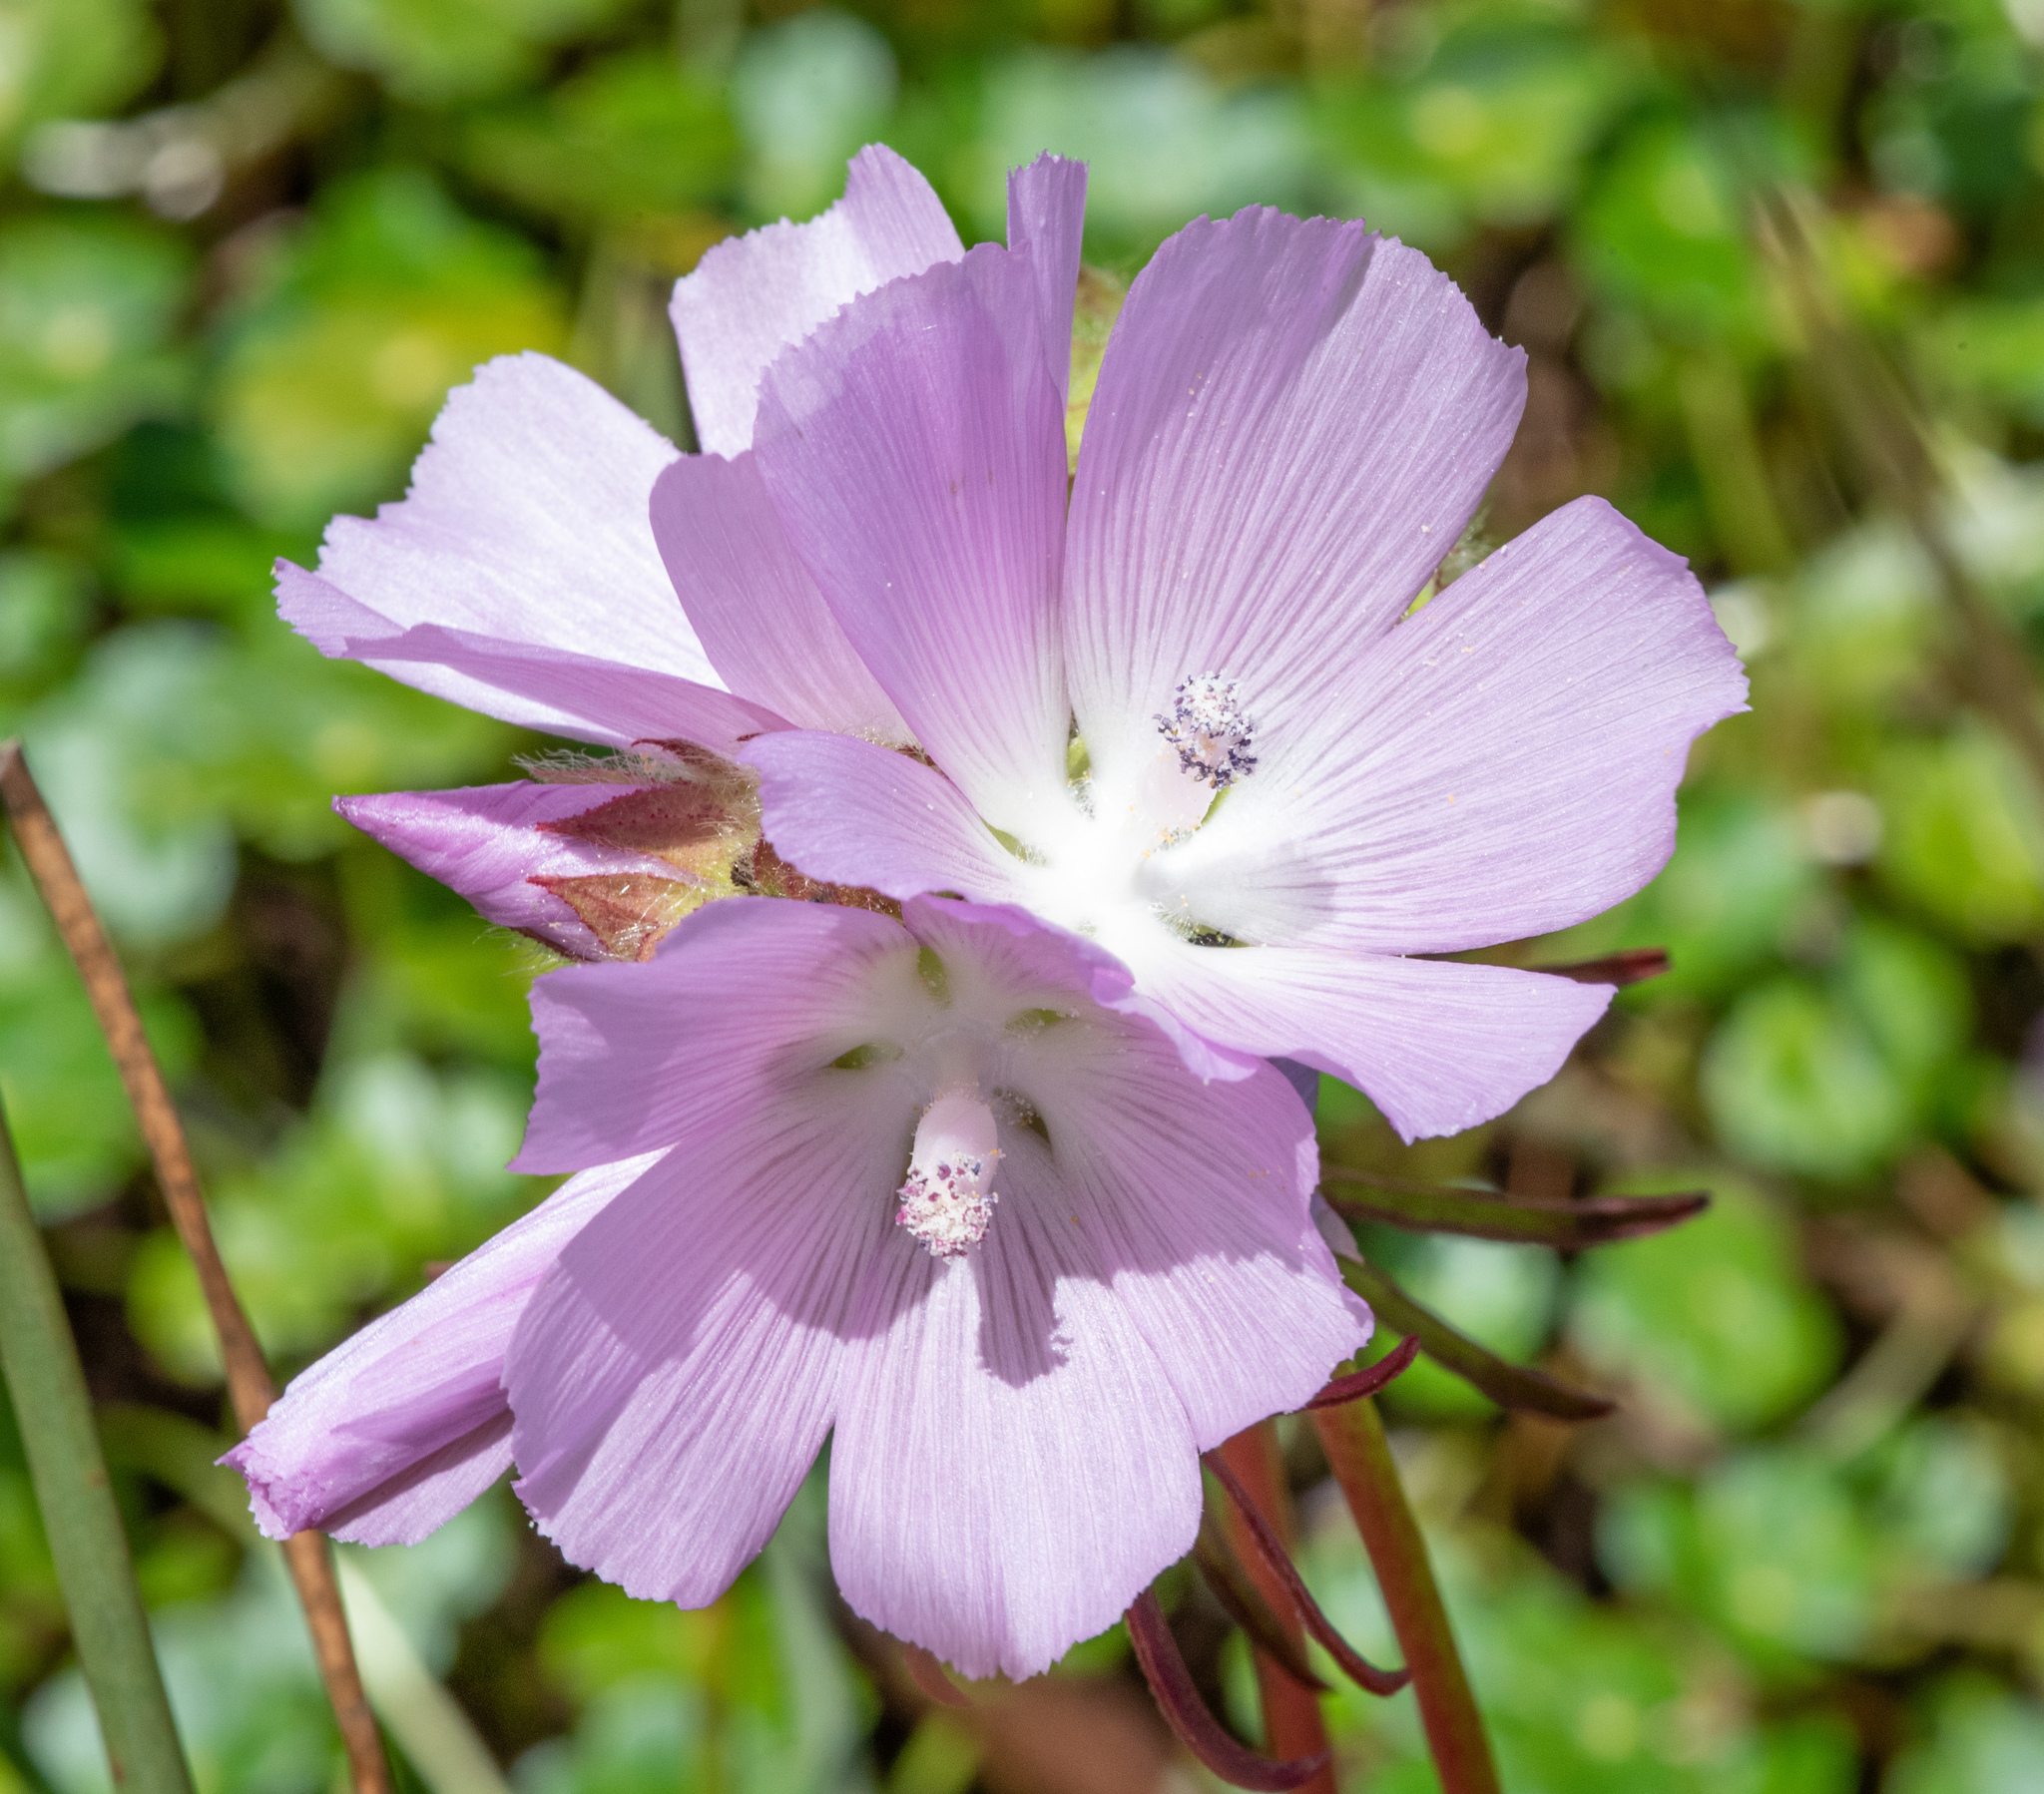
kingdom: Plantae
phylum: Tracheophyta
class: Magnoliopsida
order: Malvales
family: Malvaceae
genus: Sidalcea
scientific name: Sidalcea calycosa
